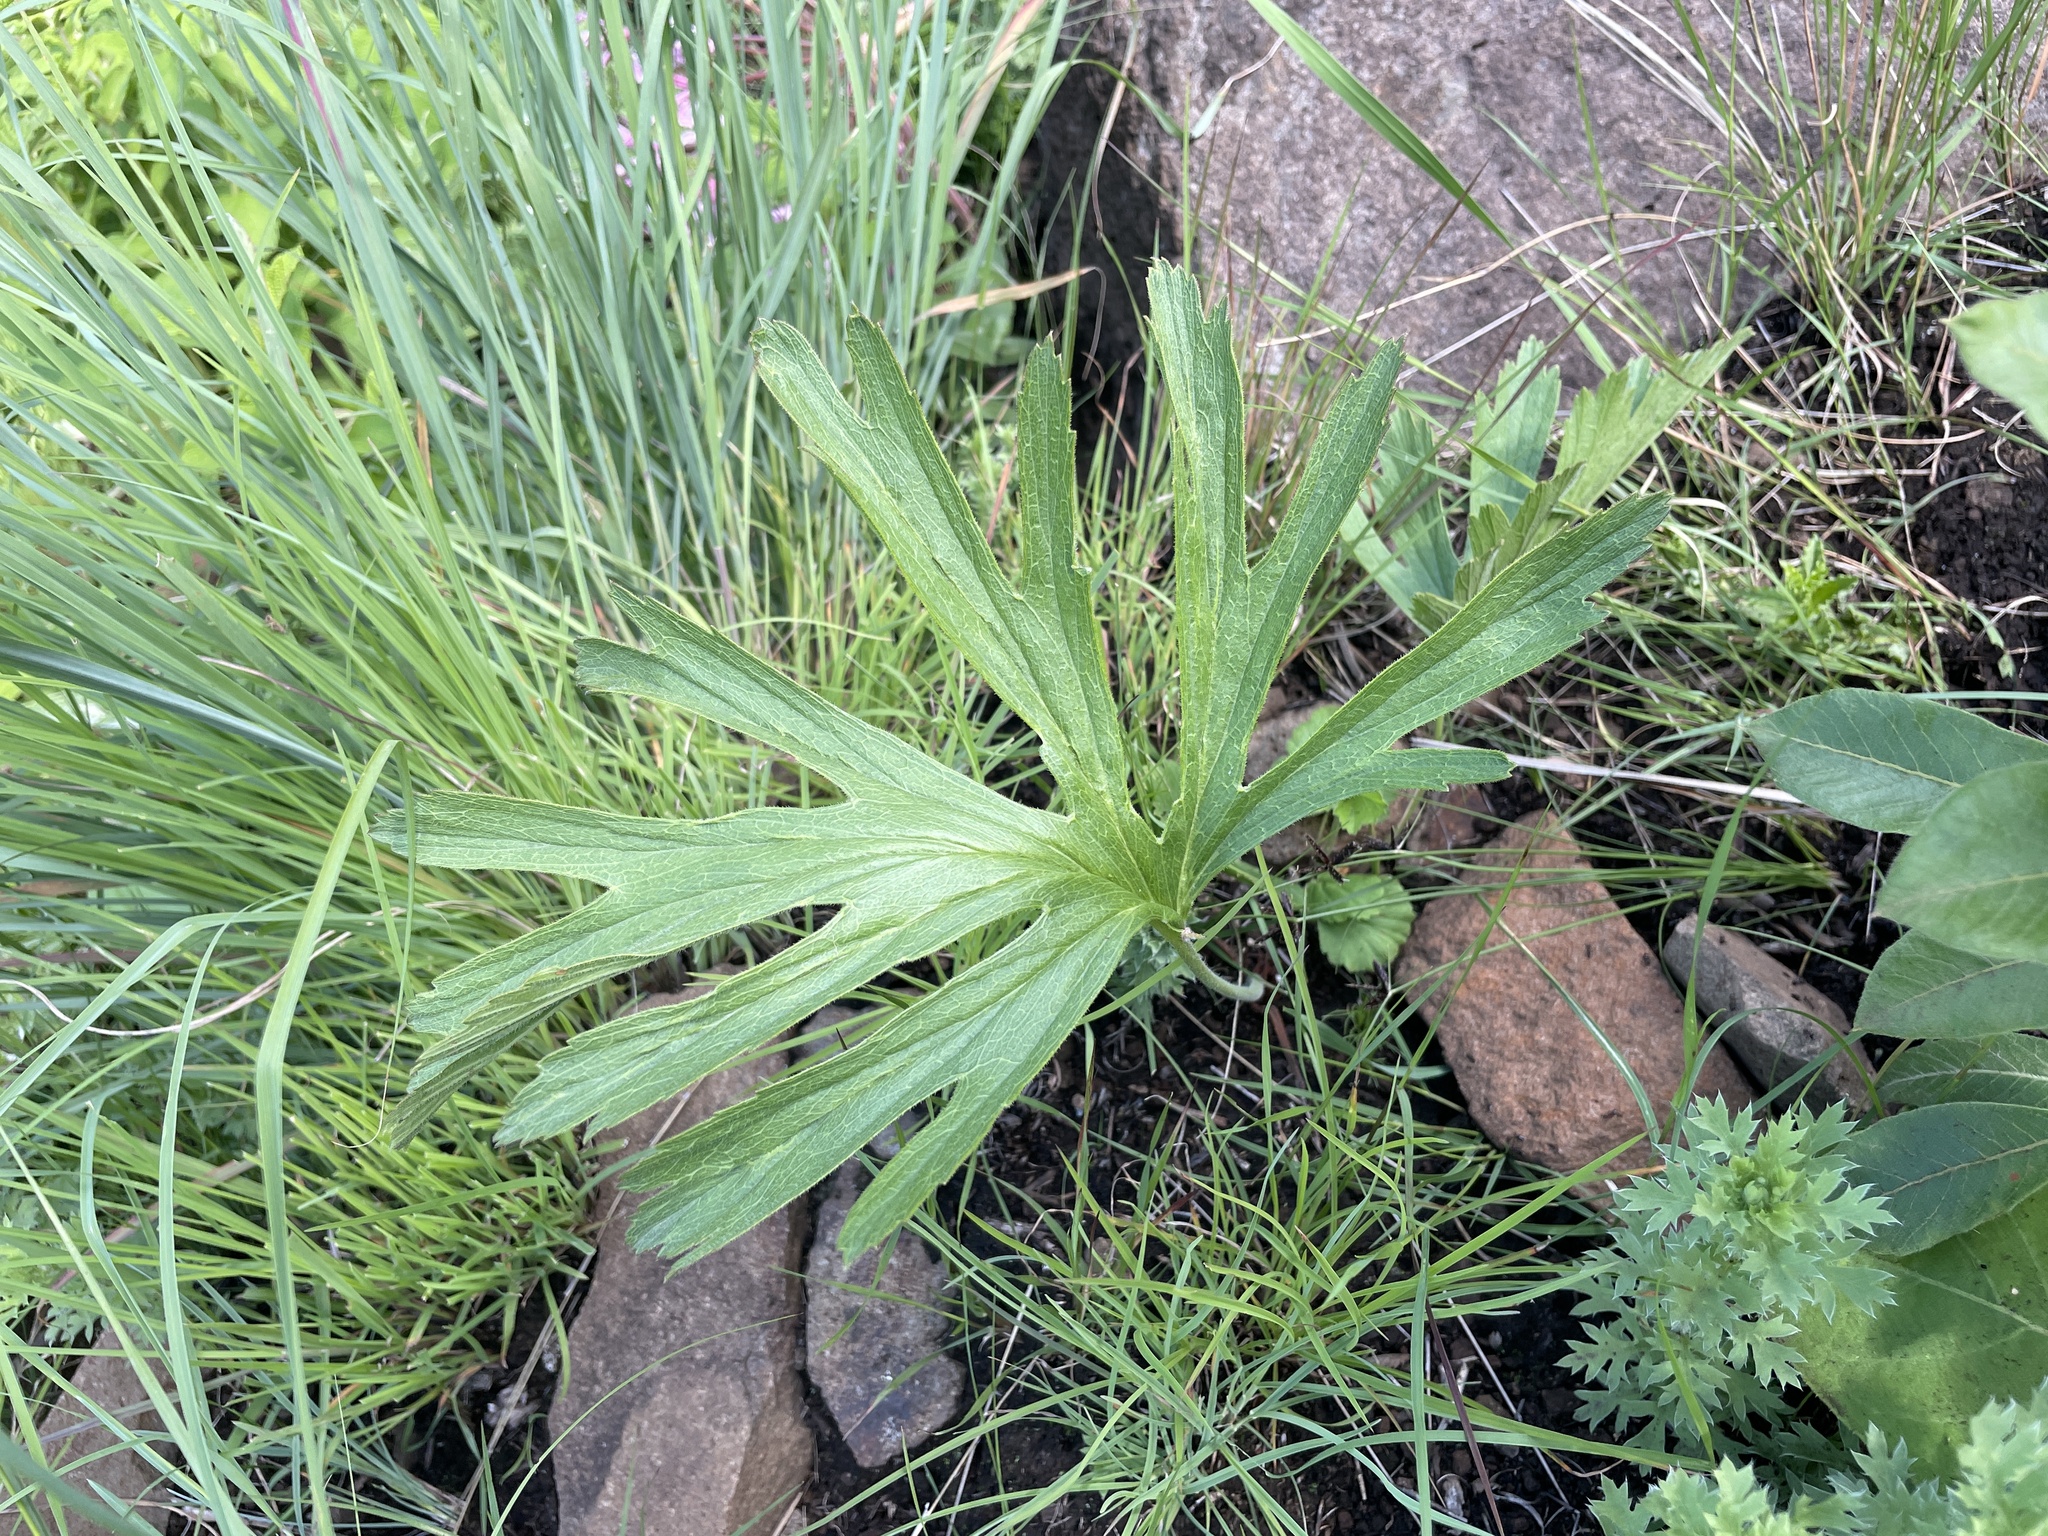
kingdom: Plantae
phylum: Tracheophyta
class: Magnoliopsida
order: Geraniales
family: Geraniaceae
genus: Pelargonium
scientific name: Pelargonium luridum
